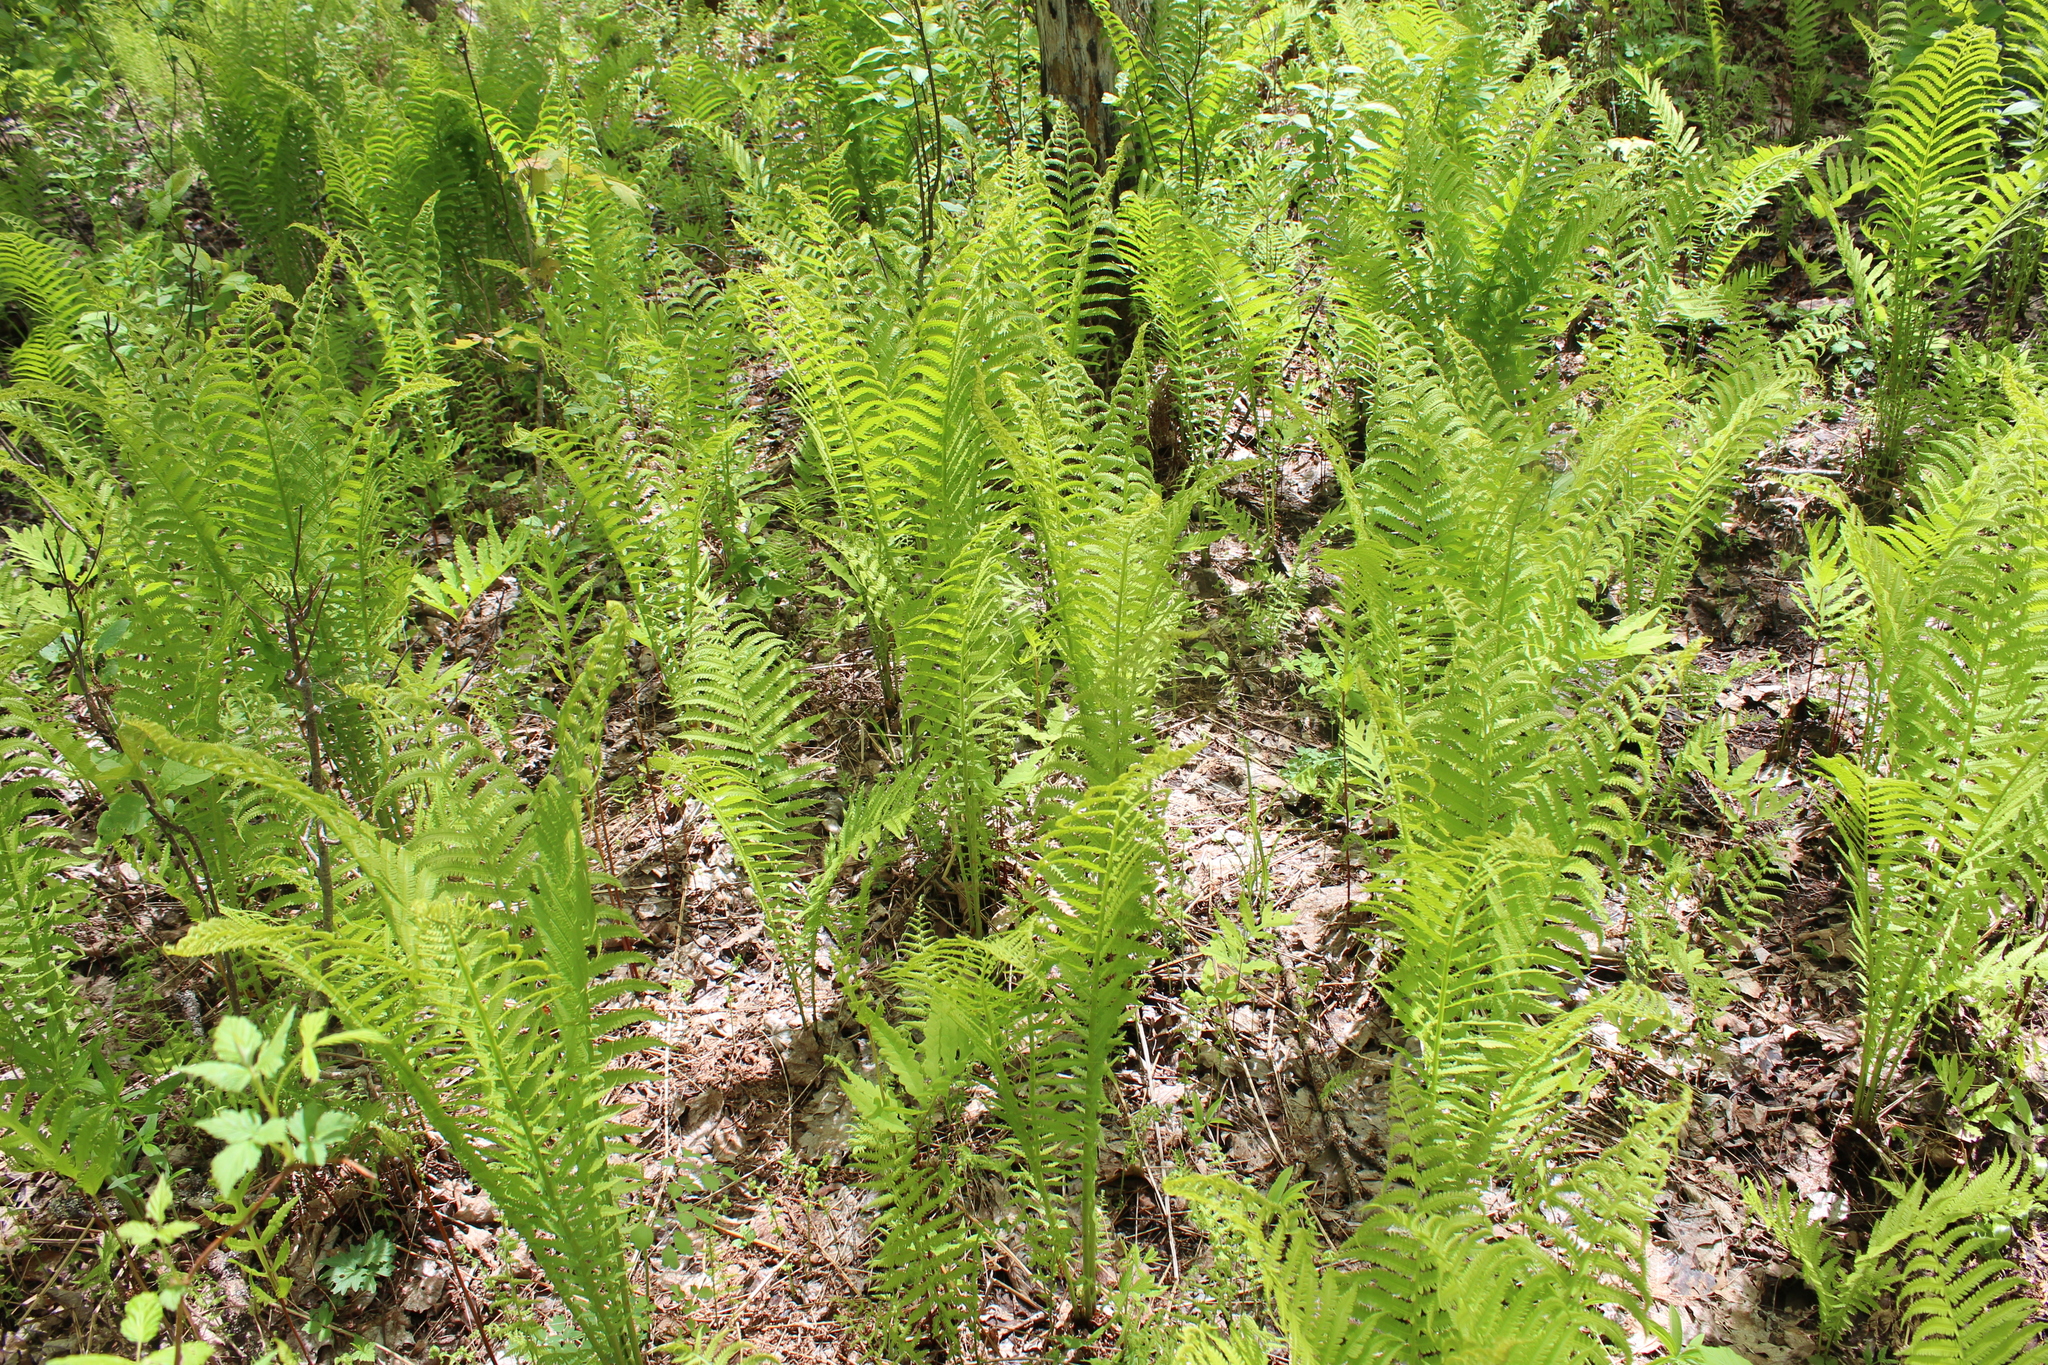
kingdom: Plantae
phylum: Tracheophyta
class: Polypodiopsida
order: Polypodiales
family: Onocleaceae
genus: Matteuccia
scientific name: Matteuccia struthiopteris
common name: Ostrich fern
